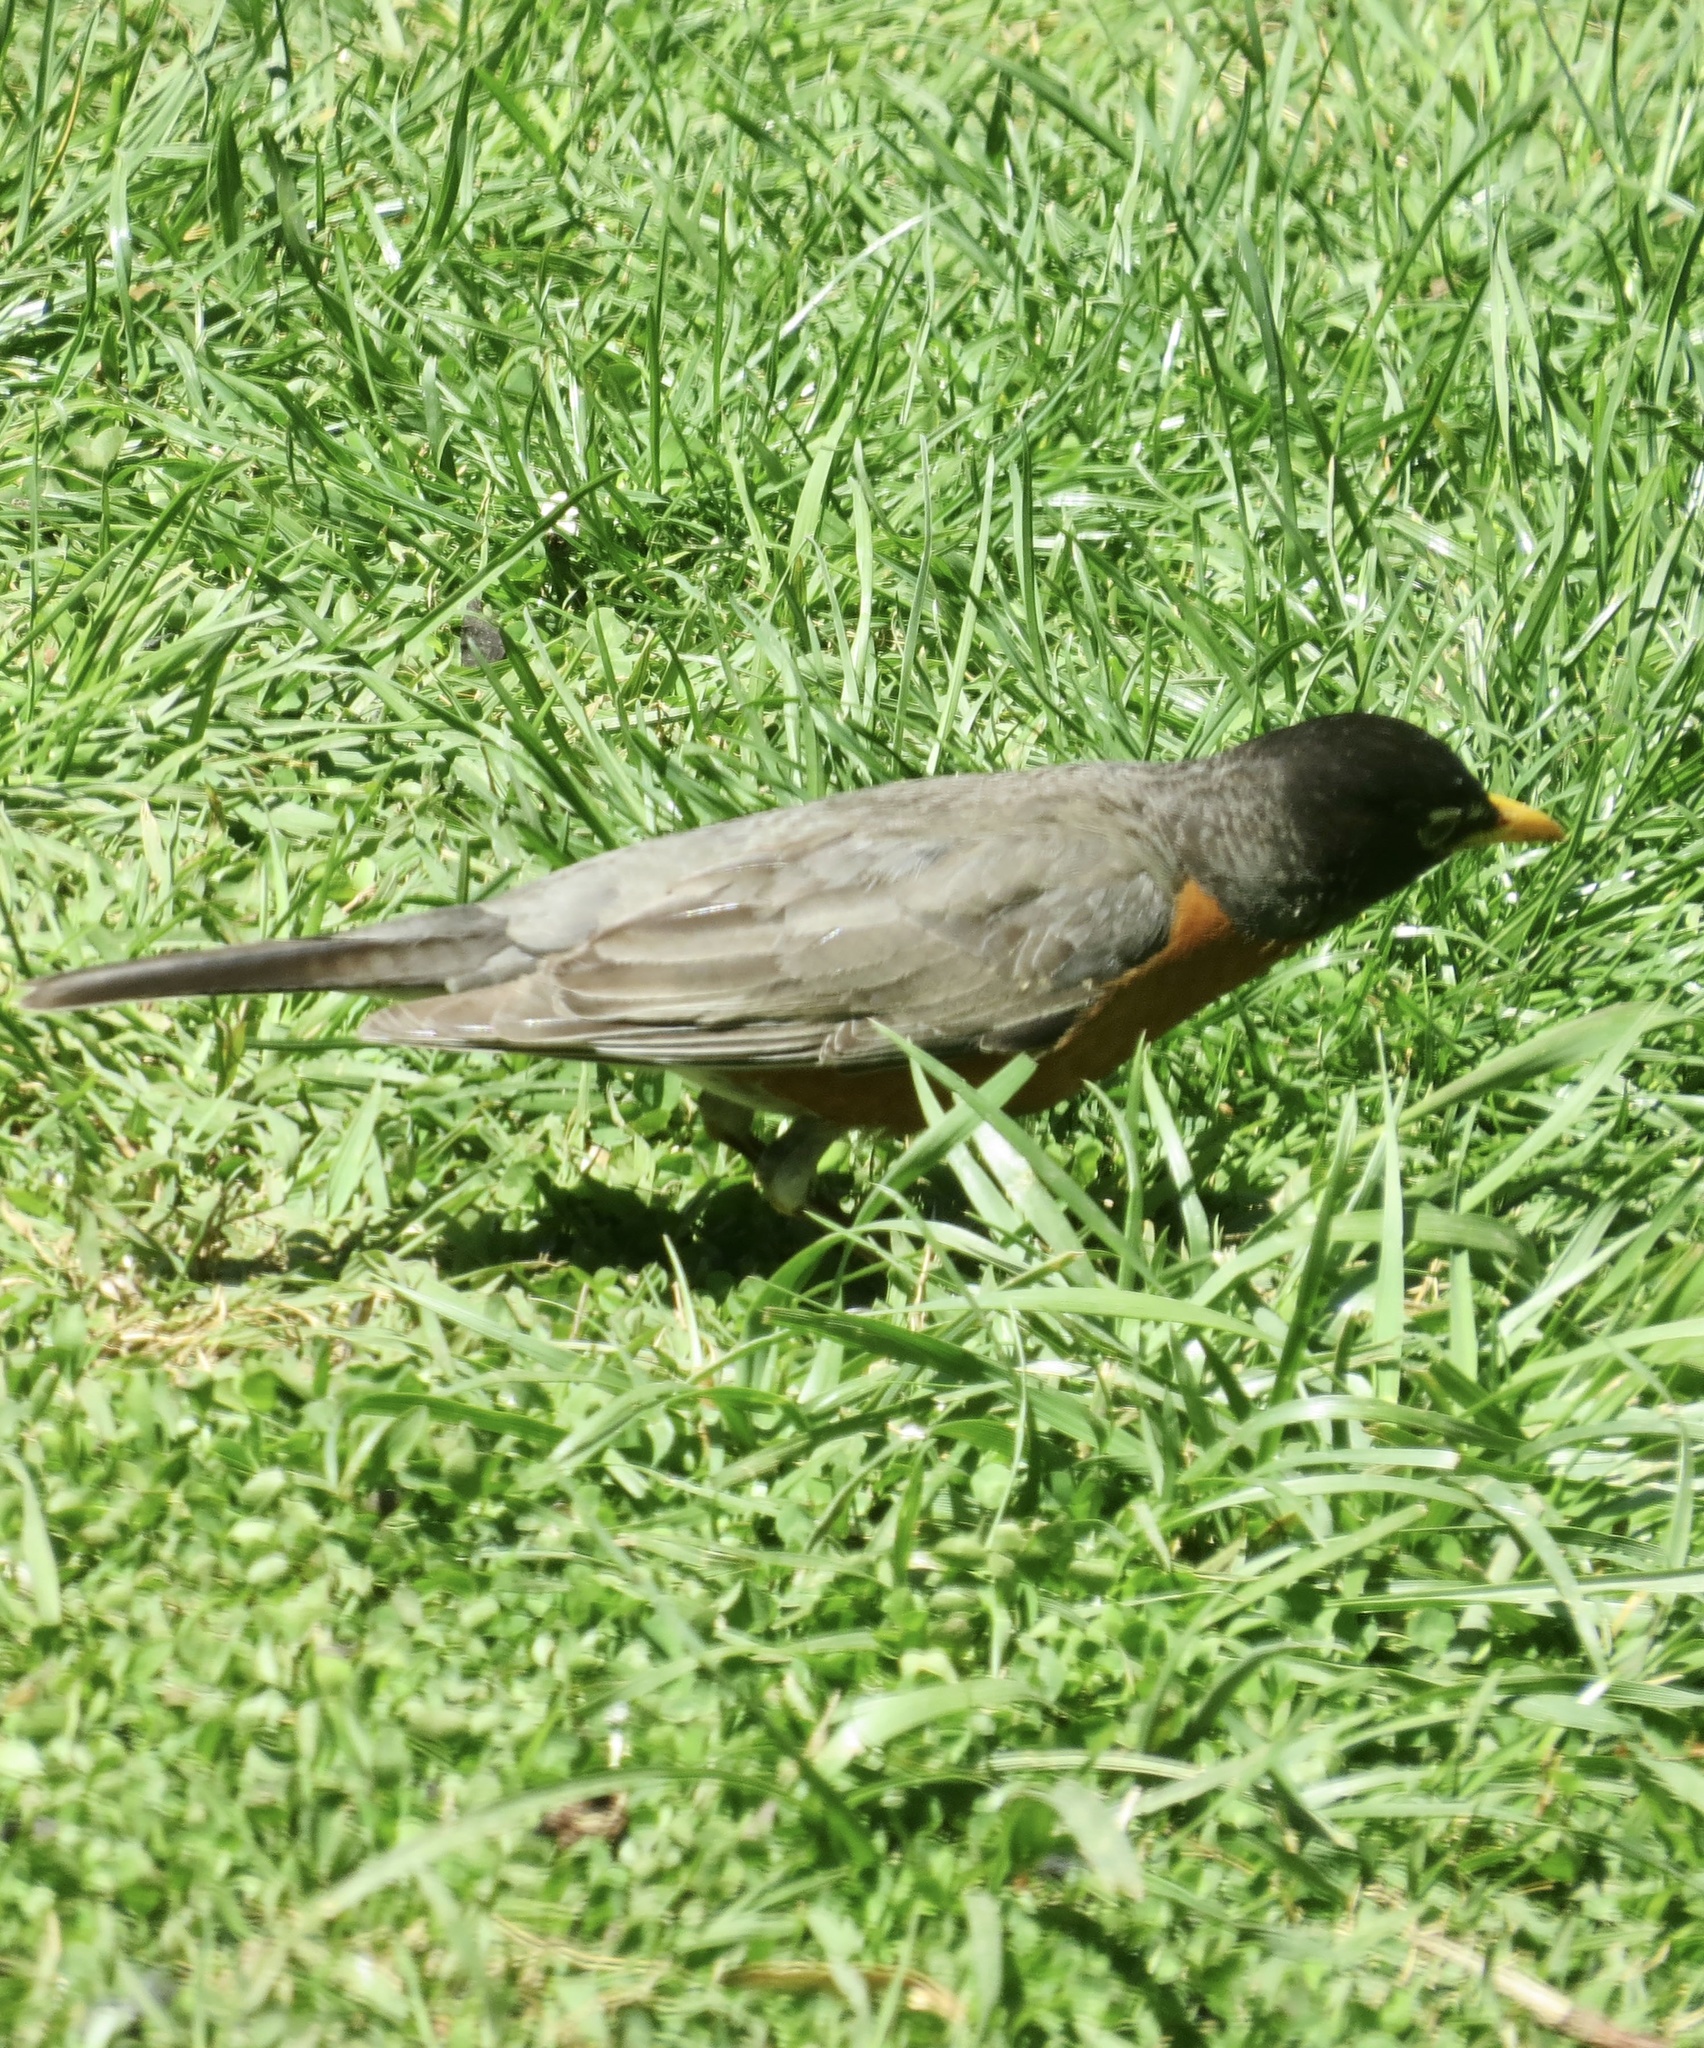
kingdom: Animalia
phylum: Chordata
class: Aves
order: Passeriformes
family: Turdidae
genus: Turdus
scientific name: Turdus migratorius
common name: American robin
